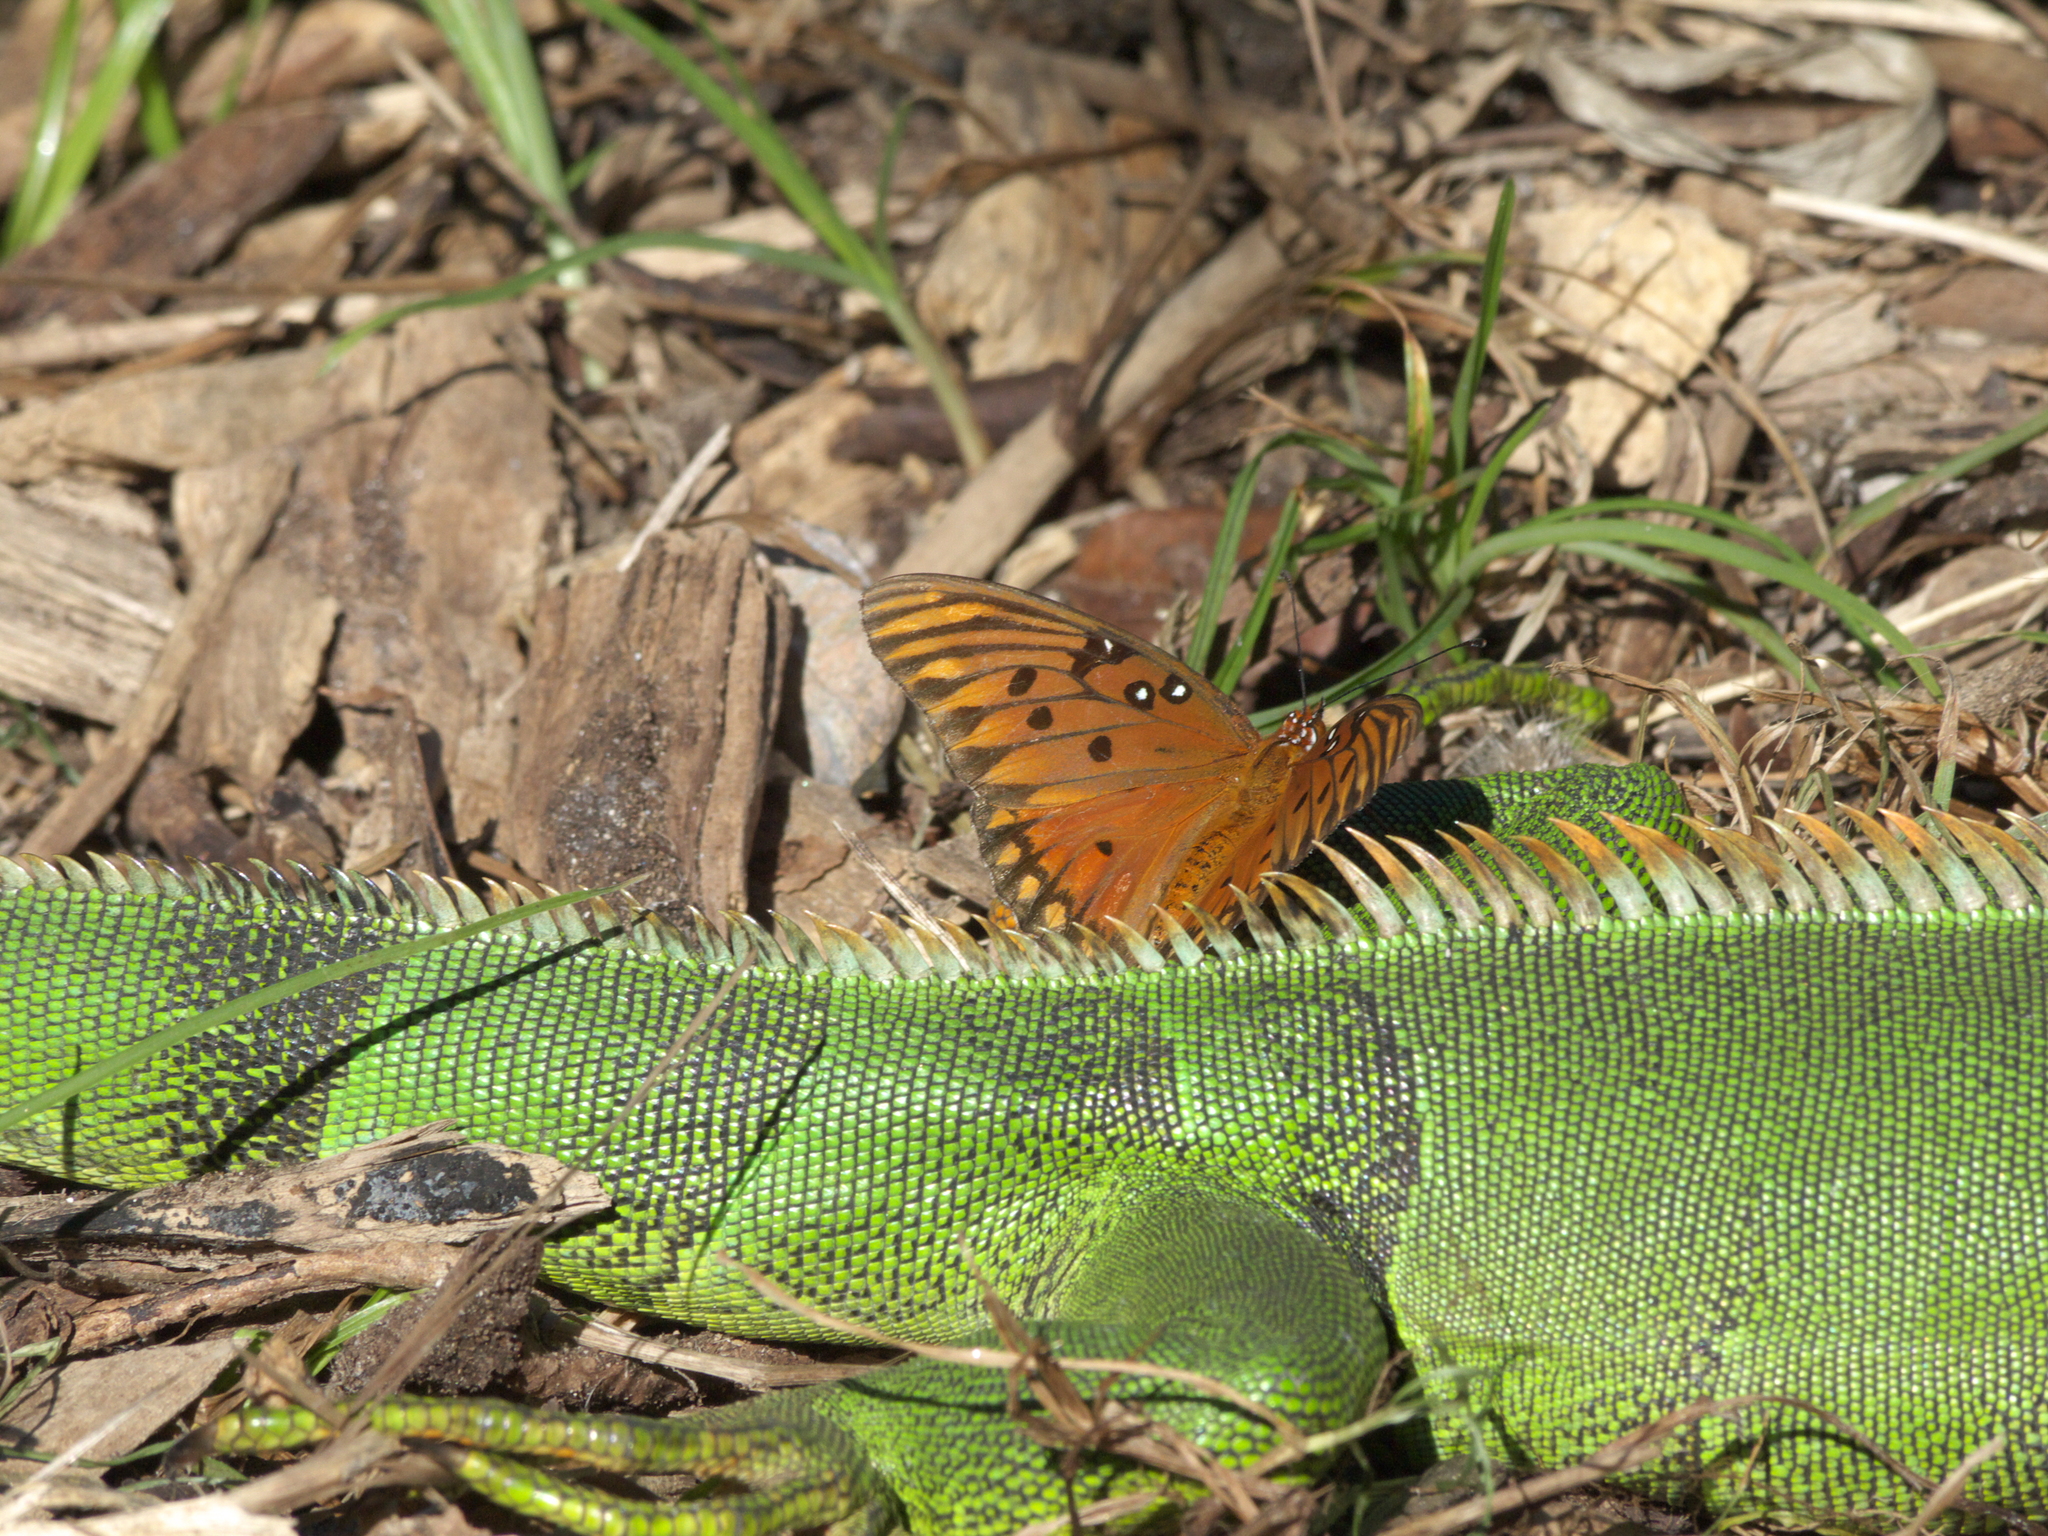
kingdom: Animalia
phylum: Chordata
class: Squamata
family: Iguanidae
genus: Iguana
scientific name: Iguana iguana
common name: Green iguana
